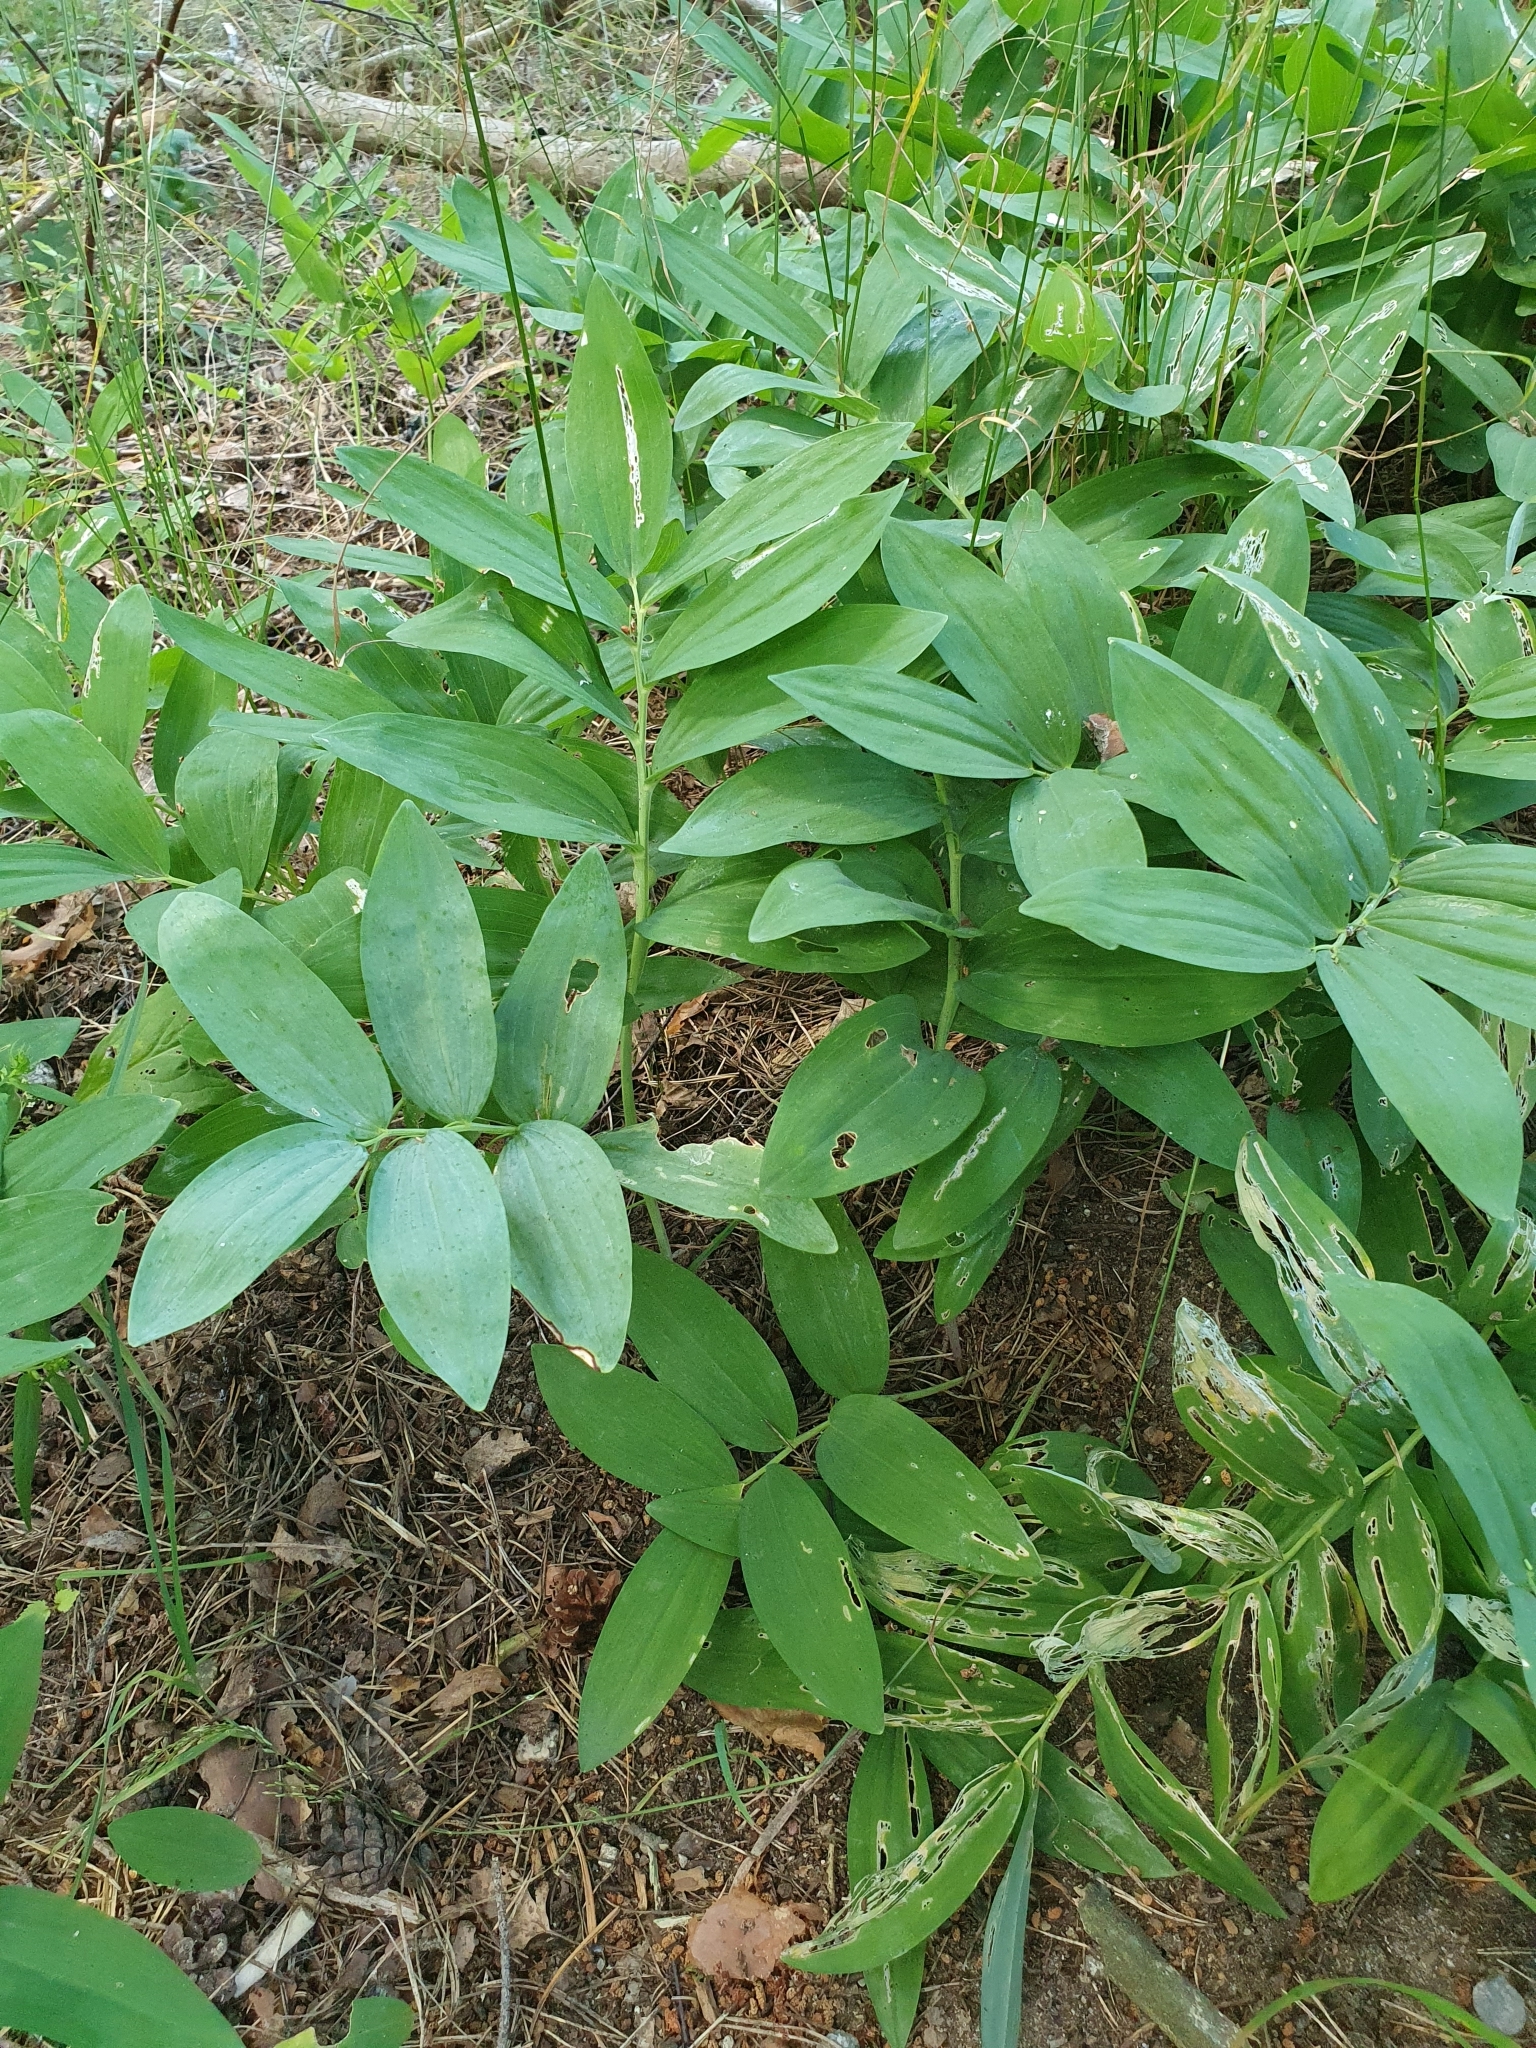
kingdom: Plantae
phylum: Tracheophyta
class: Liliopsida
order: Asparagales
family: Asparagaceae
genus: Polygonatum
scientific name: Polygonatum odoratum
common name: Angular solomon's-seal
